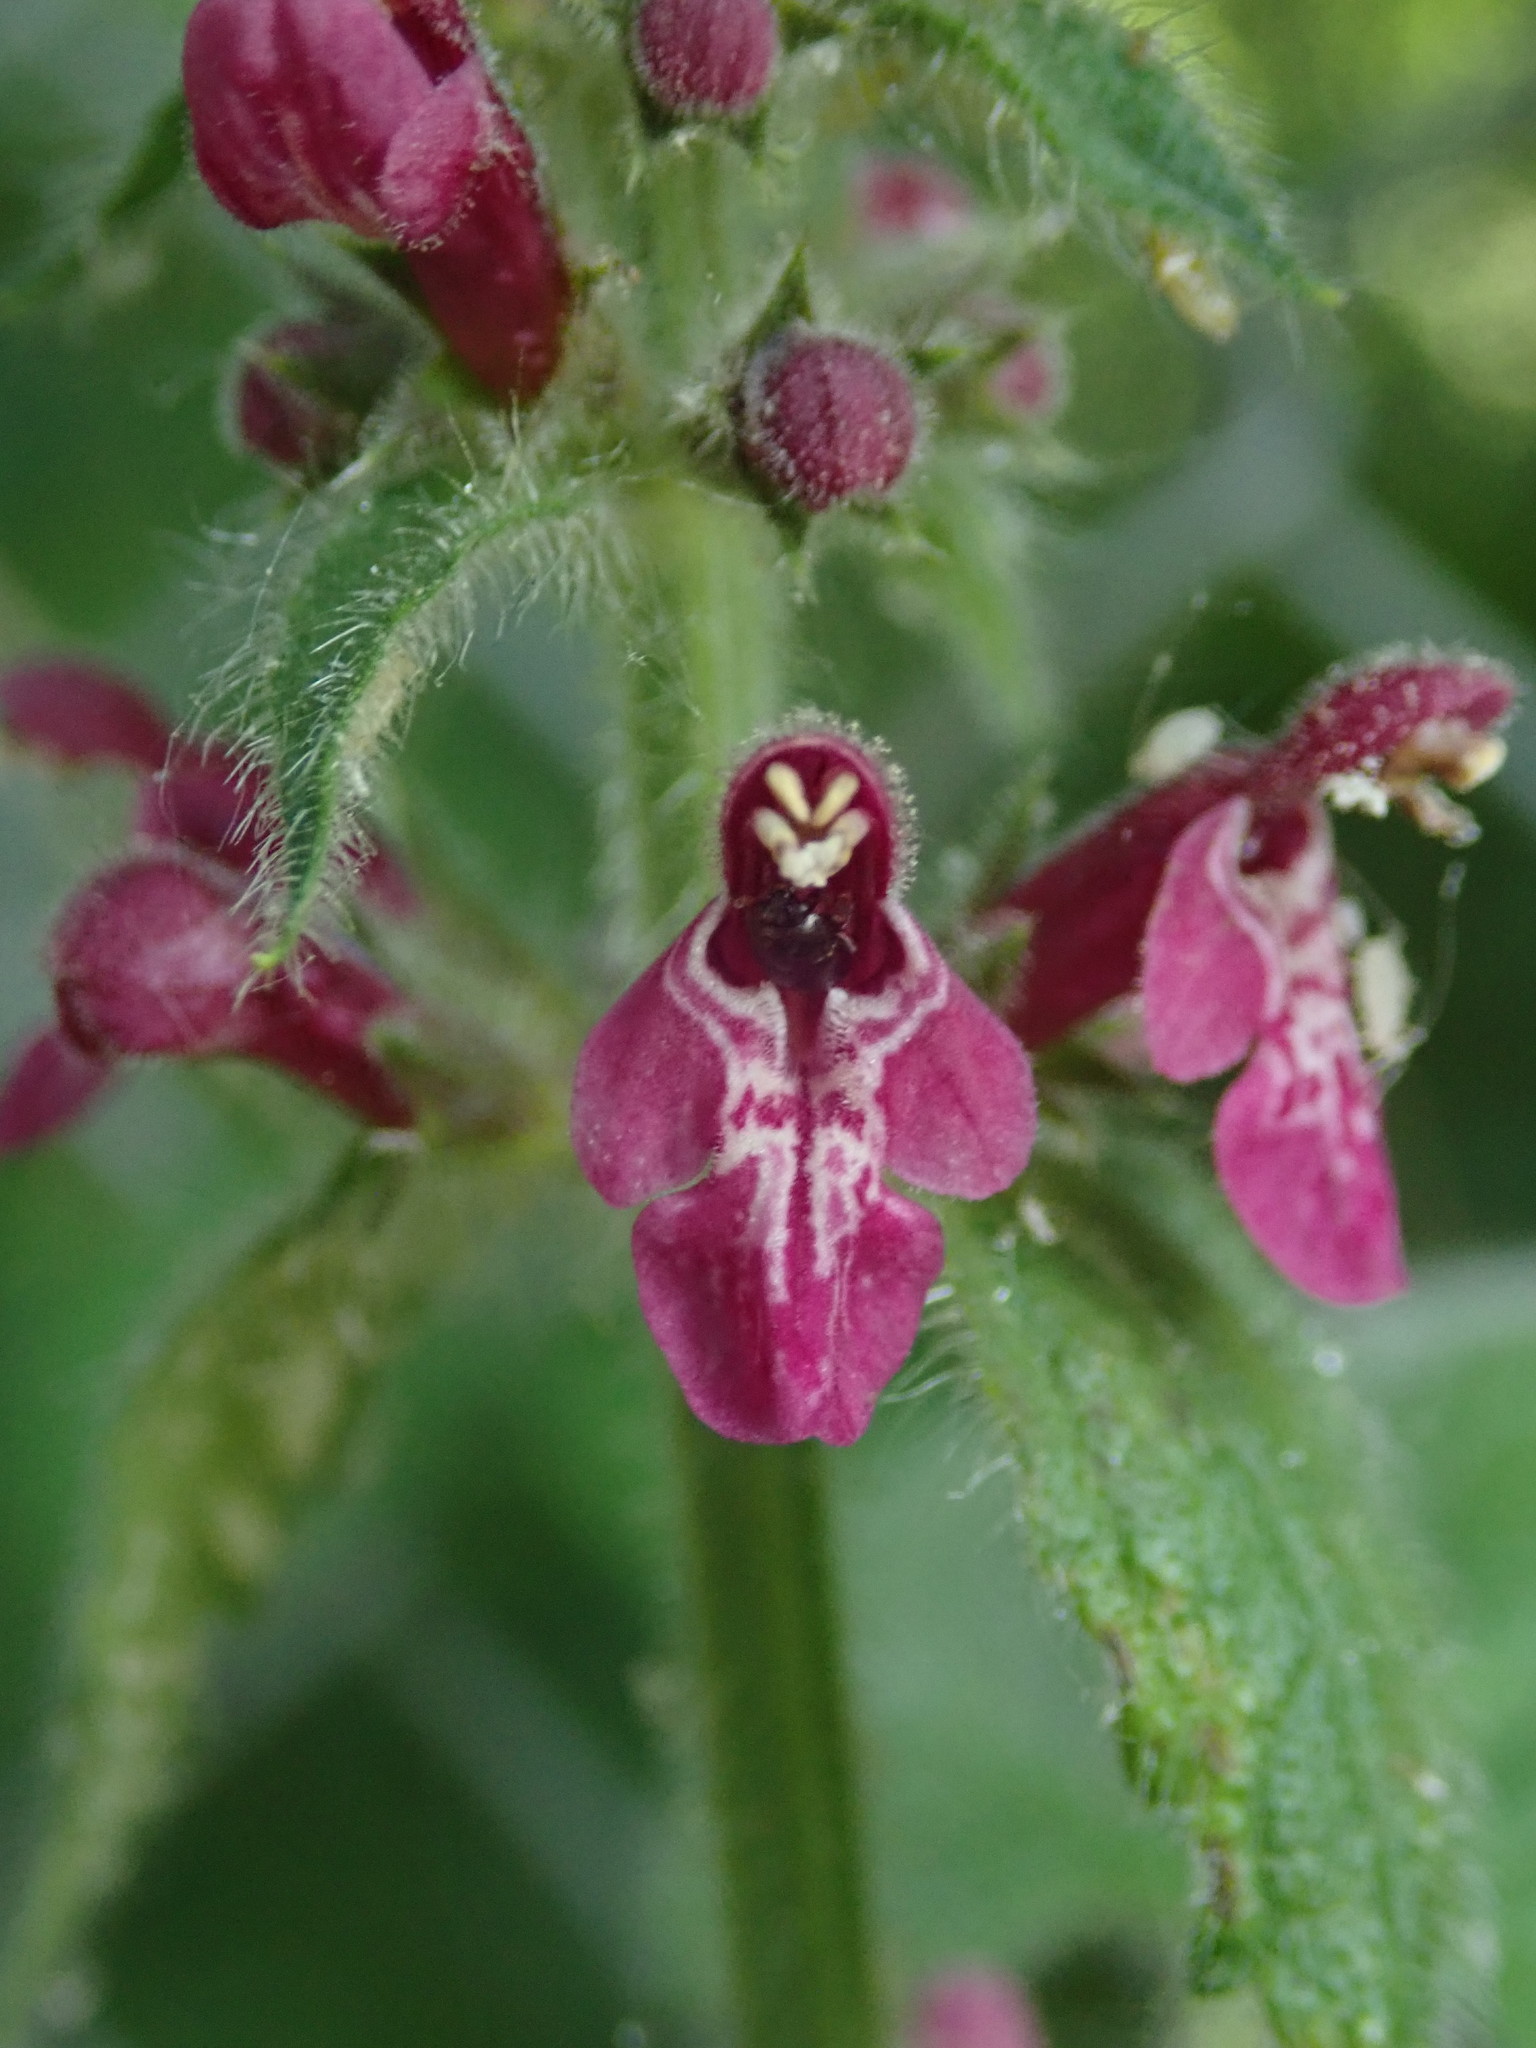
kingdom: Plantae
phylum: Tracheophyta
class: Magnoliopsida
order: Lamiales
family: Lamiaceae
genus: Stachys
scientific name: Stachys sylvatica
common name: Hedge woundwort
